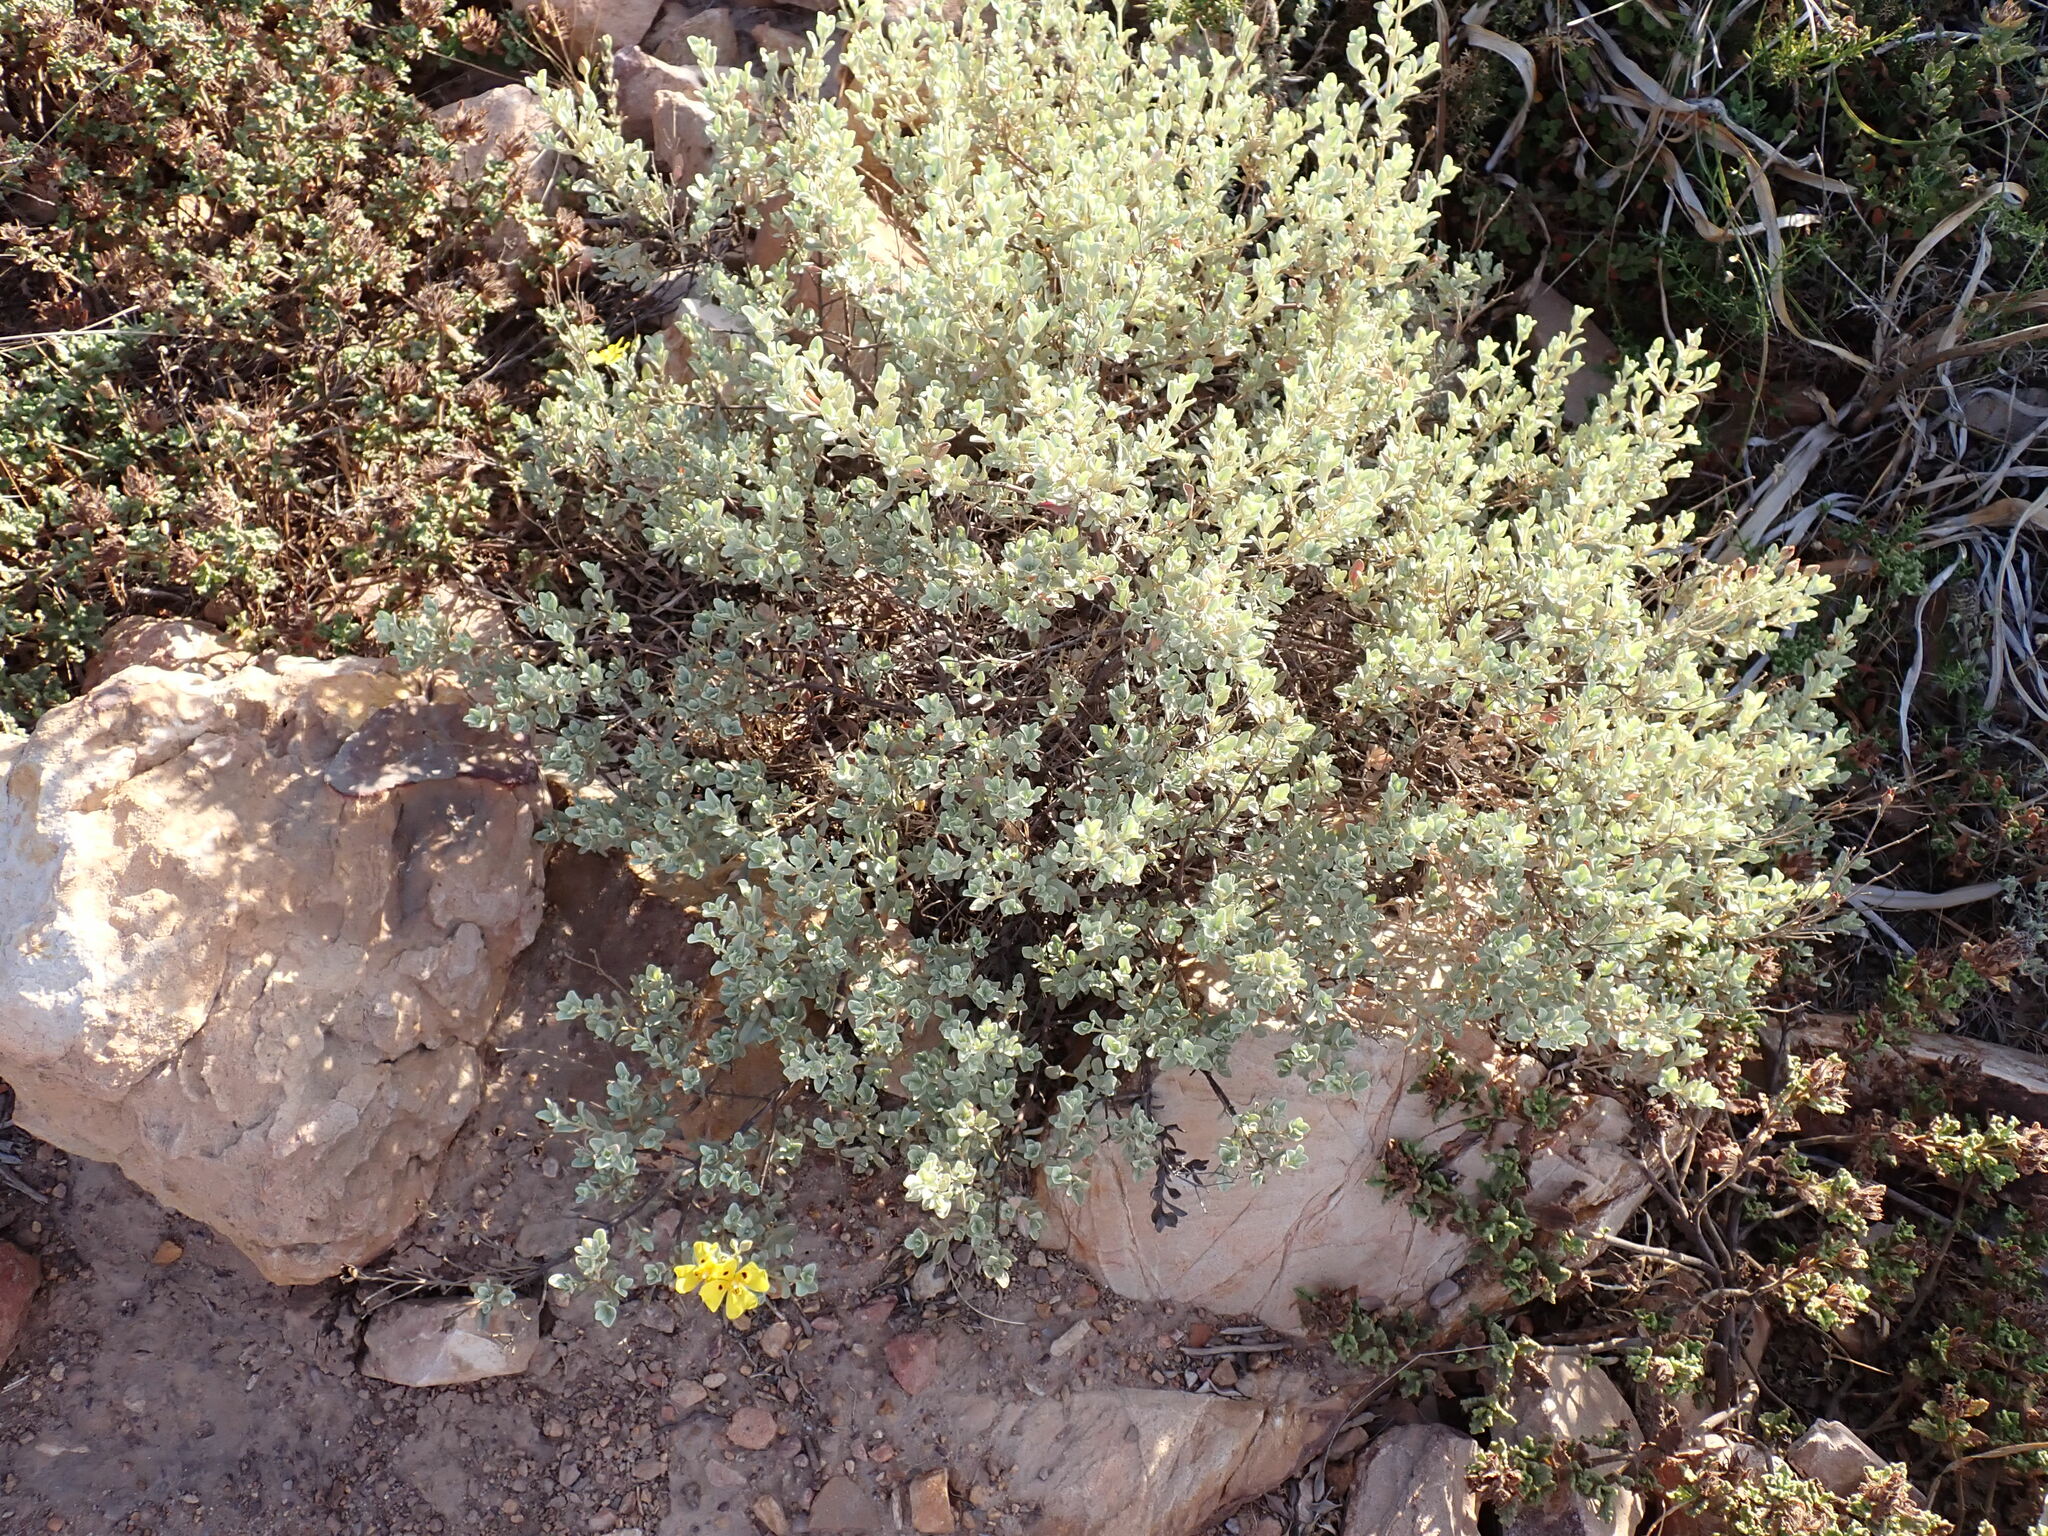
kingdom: Plantae
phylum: Tracheophyta
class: Magnoliopsida
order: Malvales
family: Cistaceae
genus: Halimium
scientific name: Halimium halimifolium
